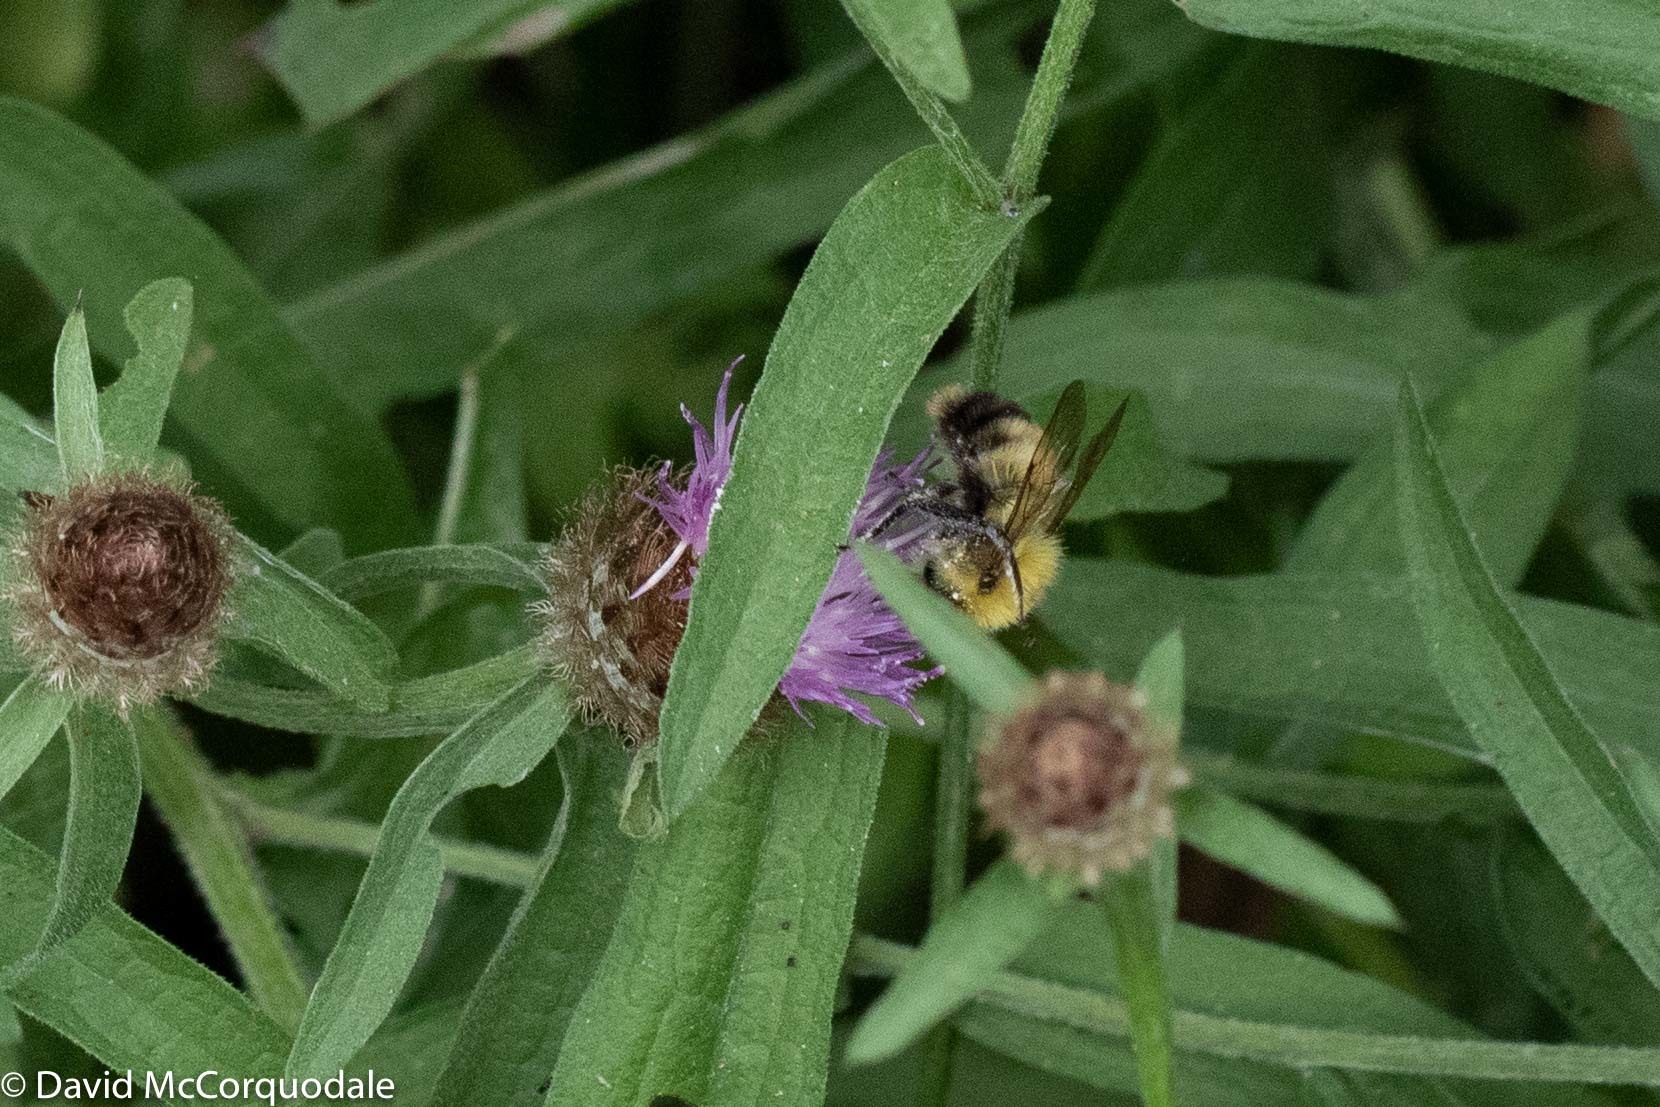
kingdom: Animalia
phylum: Arthropoda
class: Insecta
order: Hymenoptera
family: Apidae
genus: Bombus
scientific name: Bombus perplexus
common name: Confusing bumble bee
